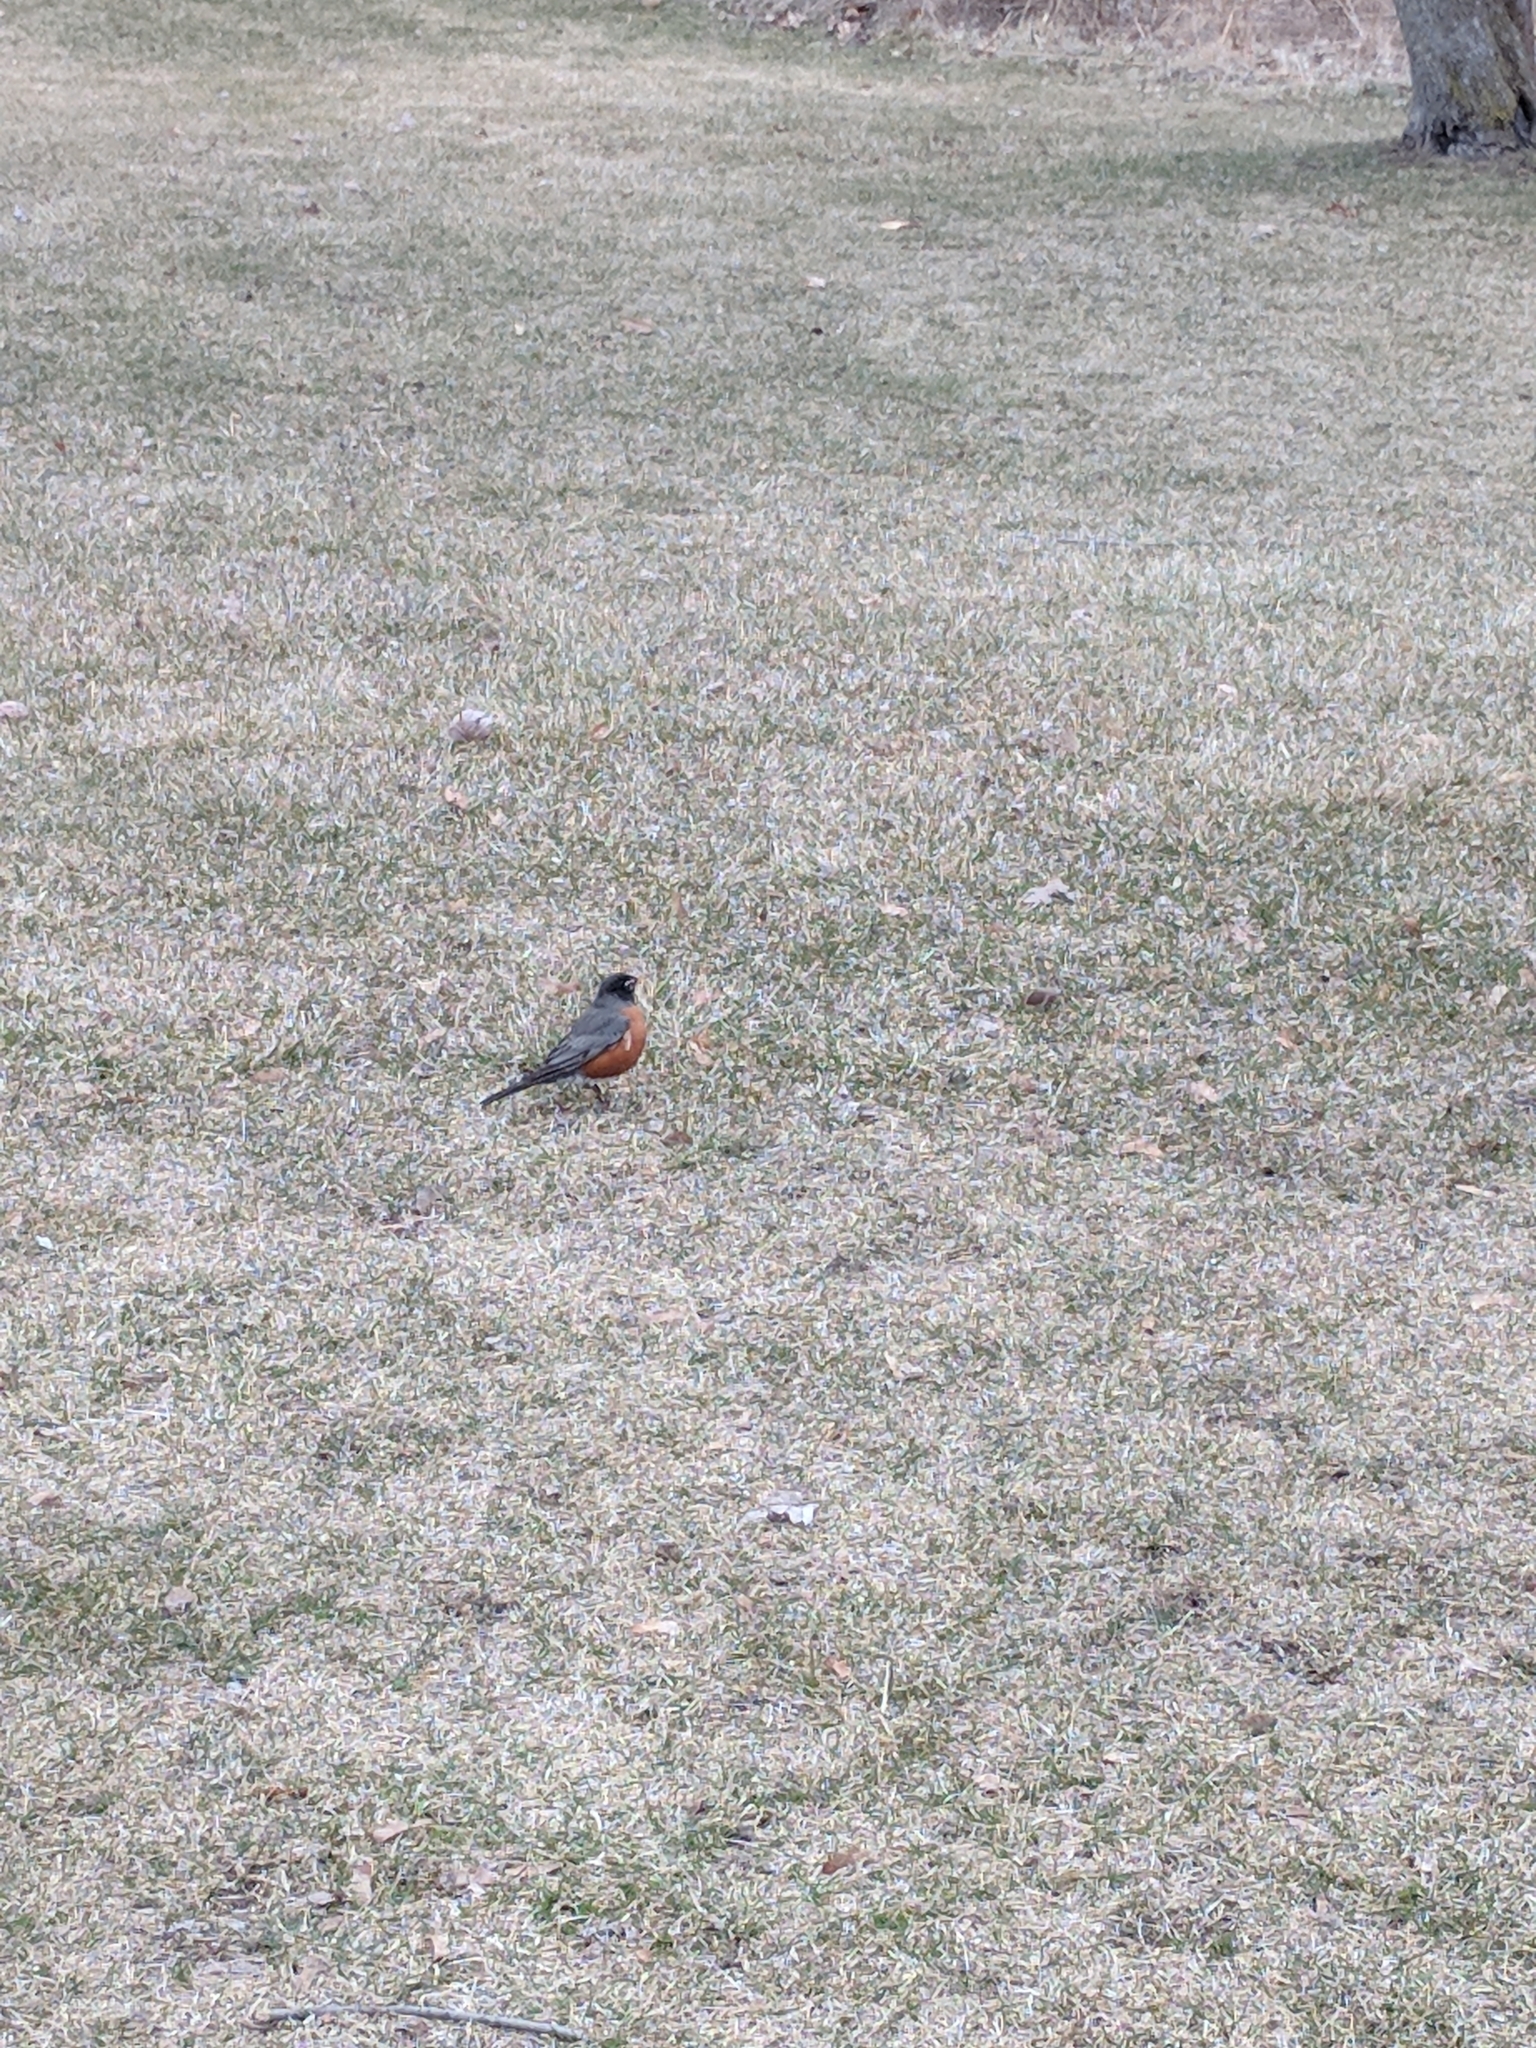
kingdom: Animalia
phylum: Chordata
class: Aves
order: Passeriformes
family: Turdidae
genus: Turdus
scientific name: Turdus migratorius
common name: American robin
